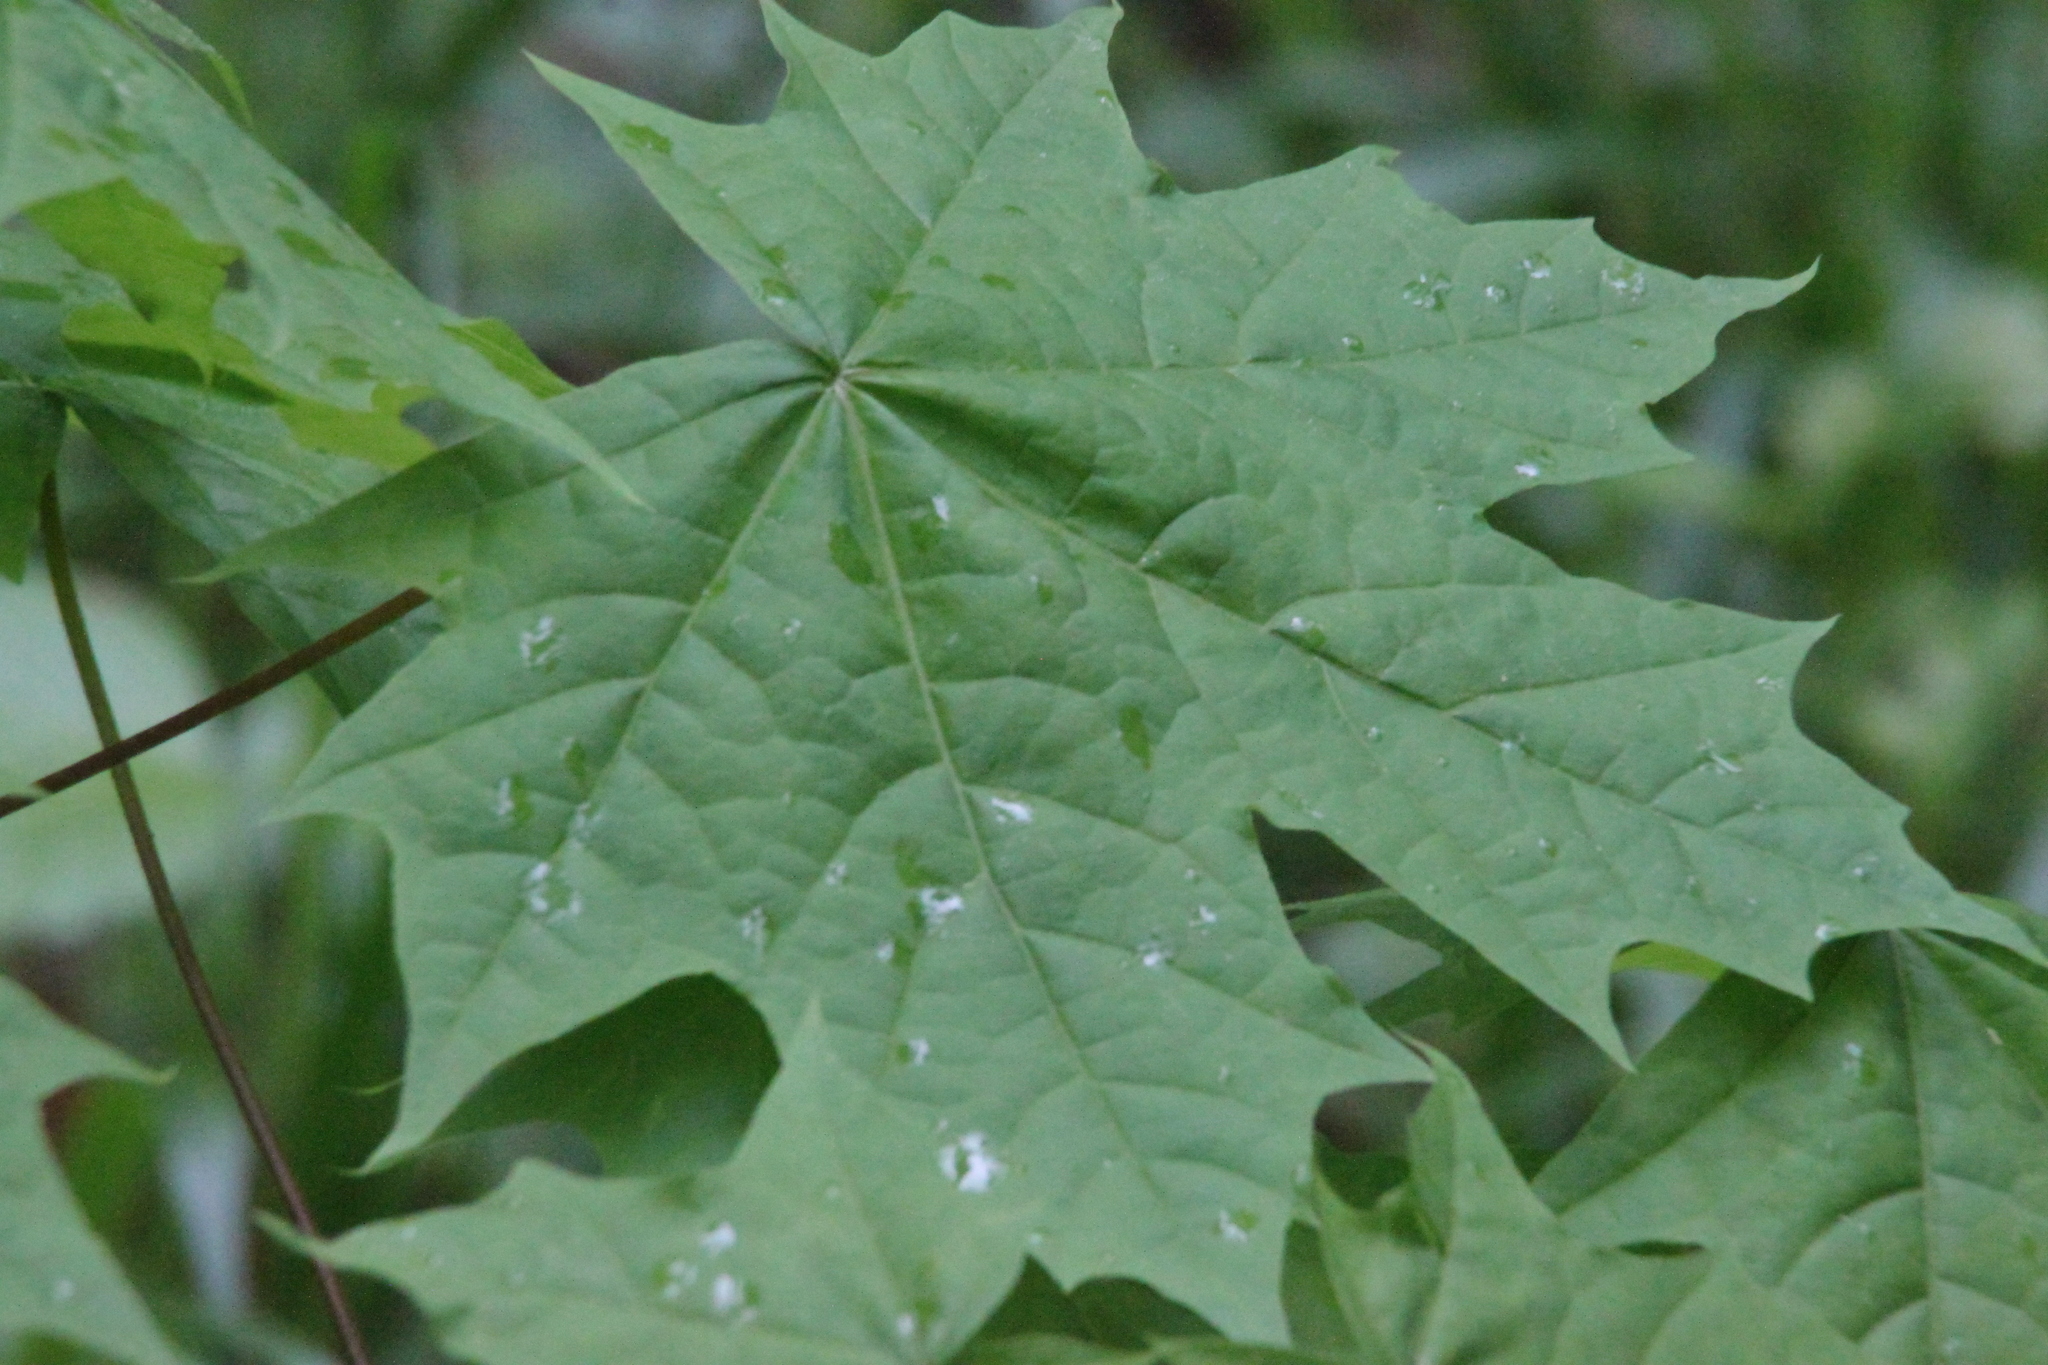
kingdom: Plantae
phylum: Tracheophyta
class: Magnoliopsida
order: Sapindales
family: Sapindaceae
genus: Acer
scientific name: Acer platanoides
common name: Norway maple
